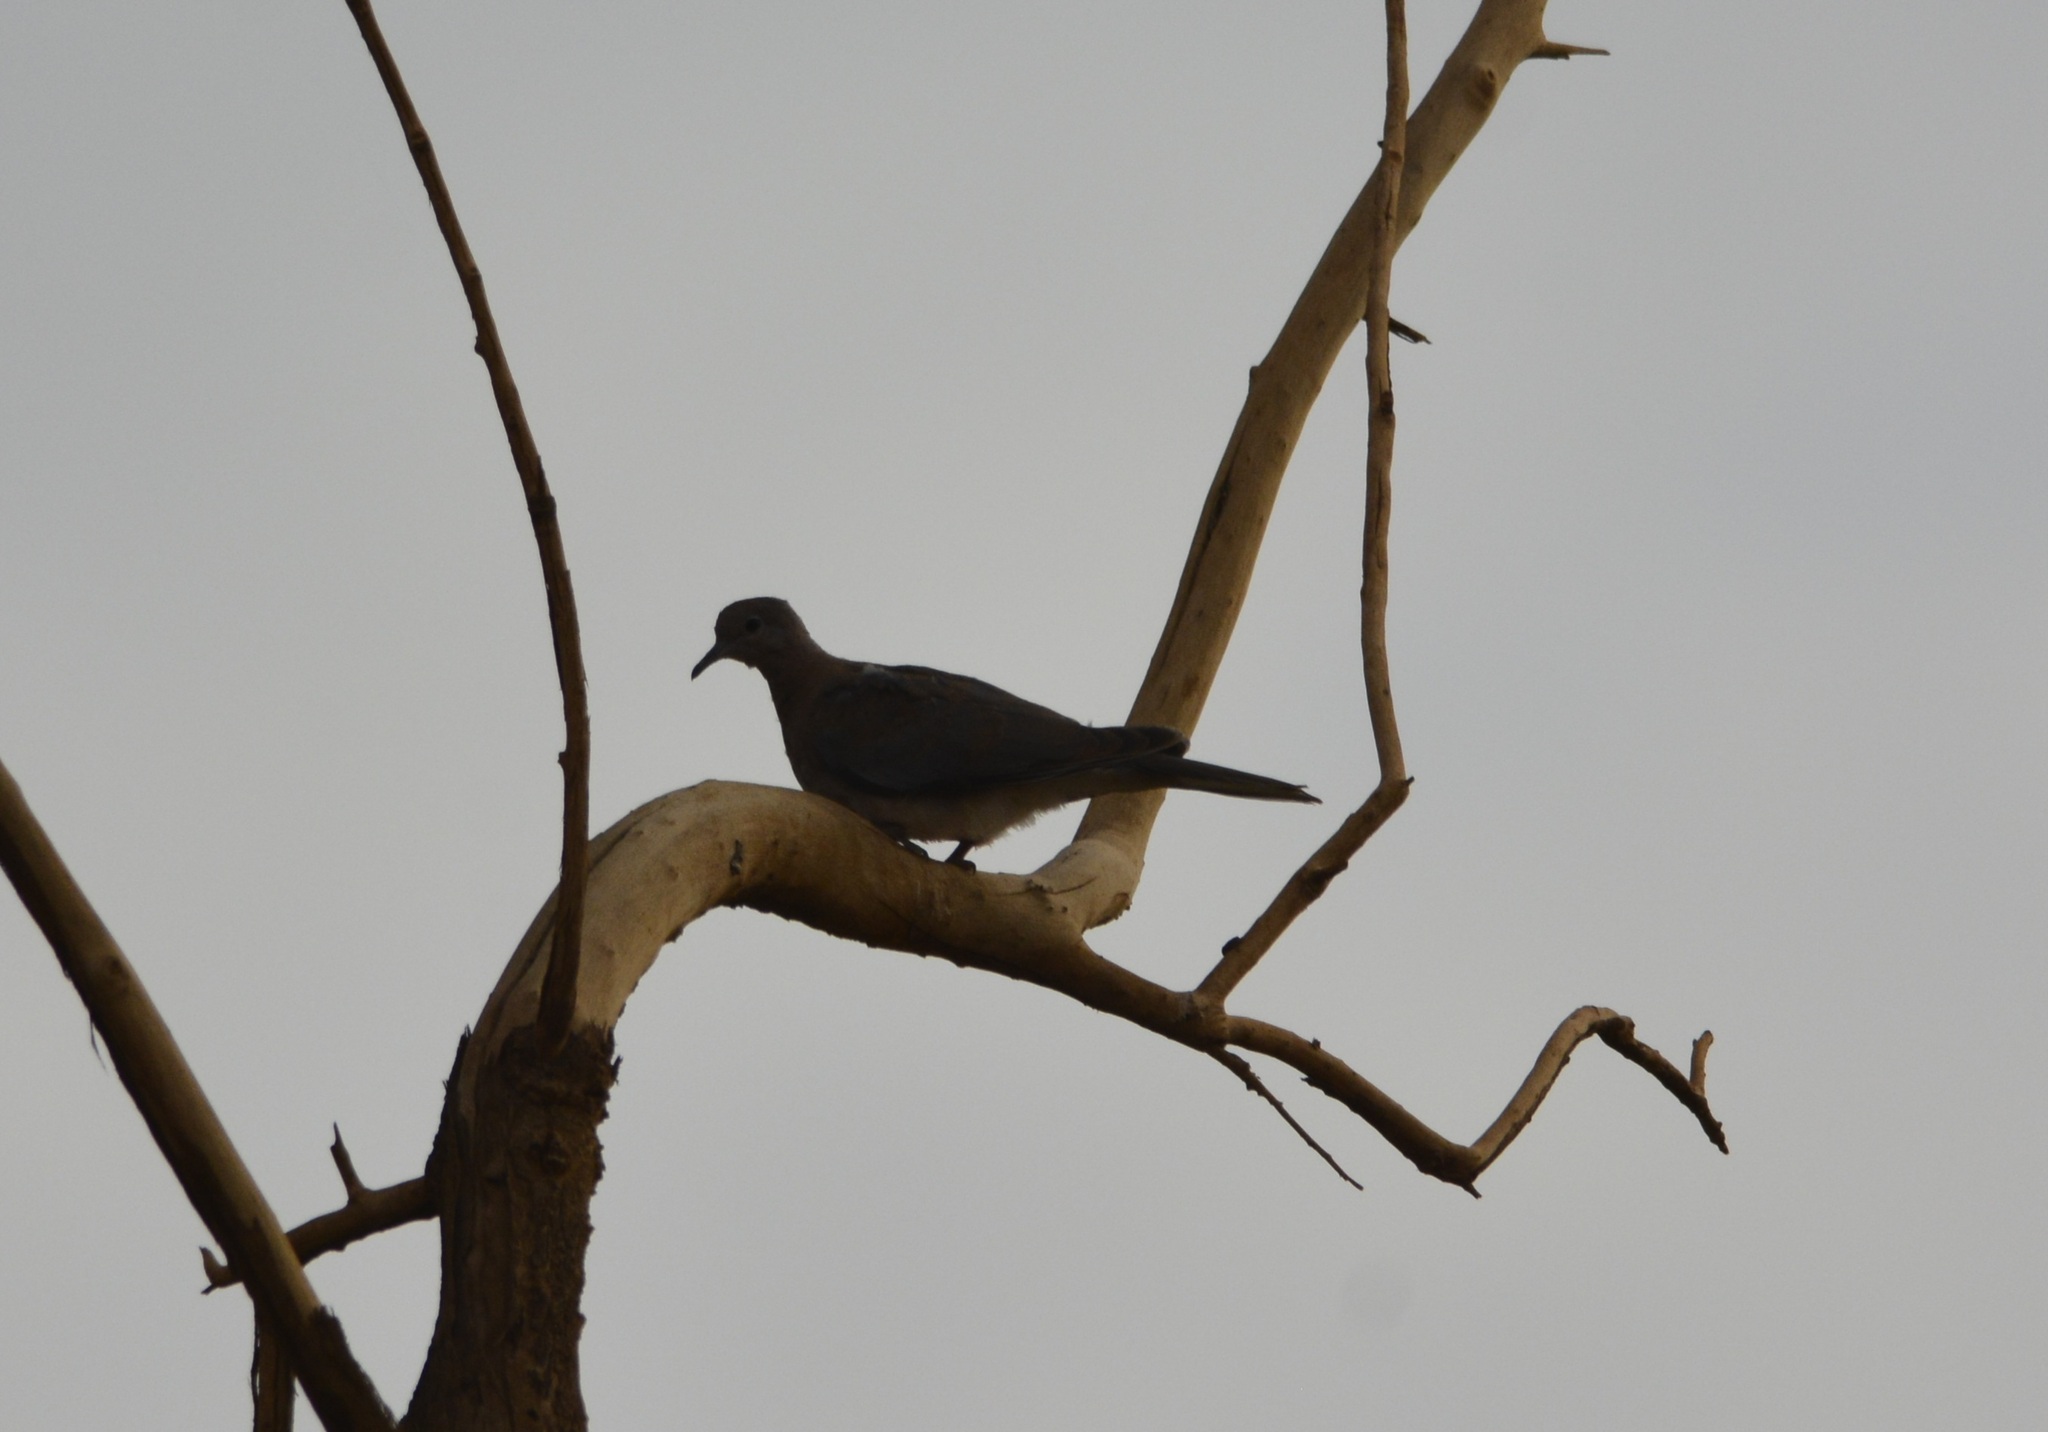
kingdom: Animalia
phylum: Chordata
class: Aves
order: Columbiformes
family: Columbidae
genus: Spilopelia
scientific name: Spilopelia senegalensis
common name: Laughing dove
